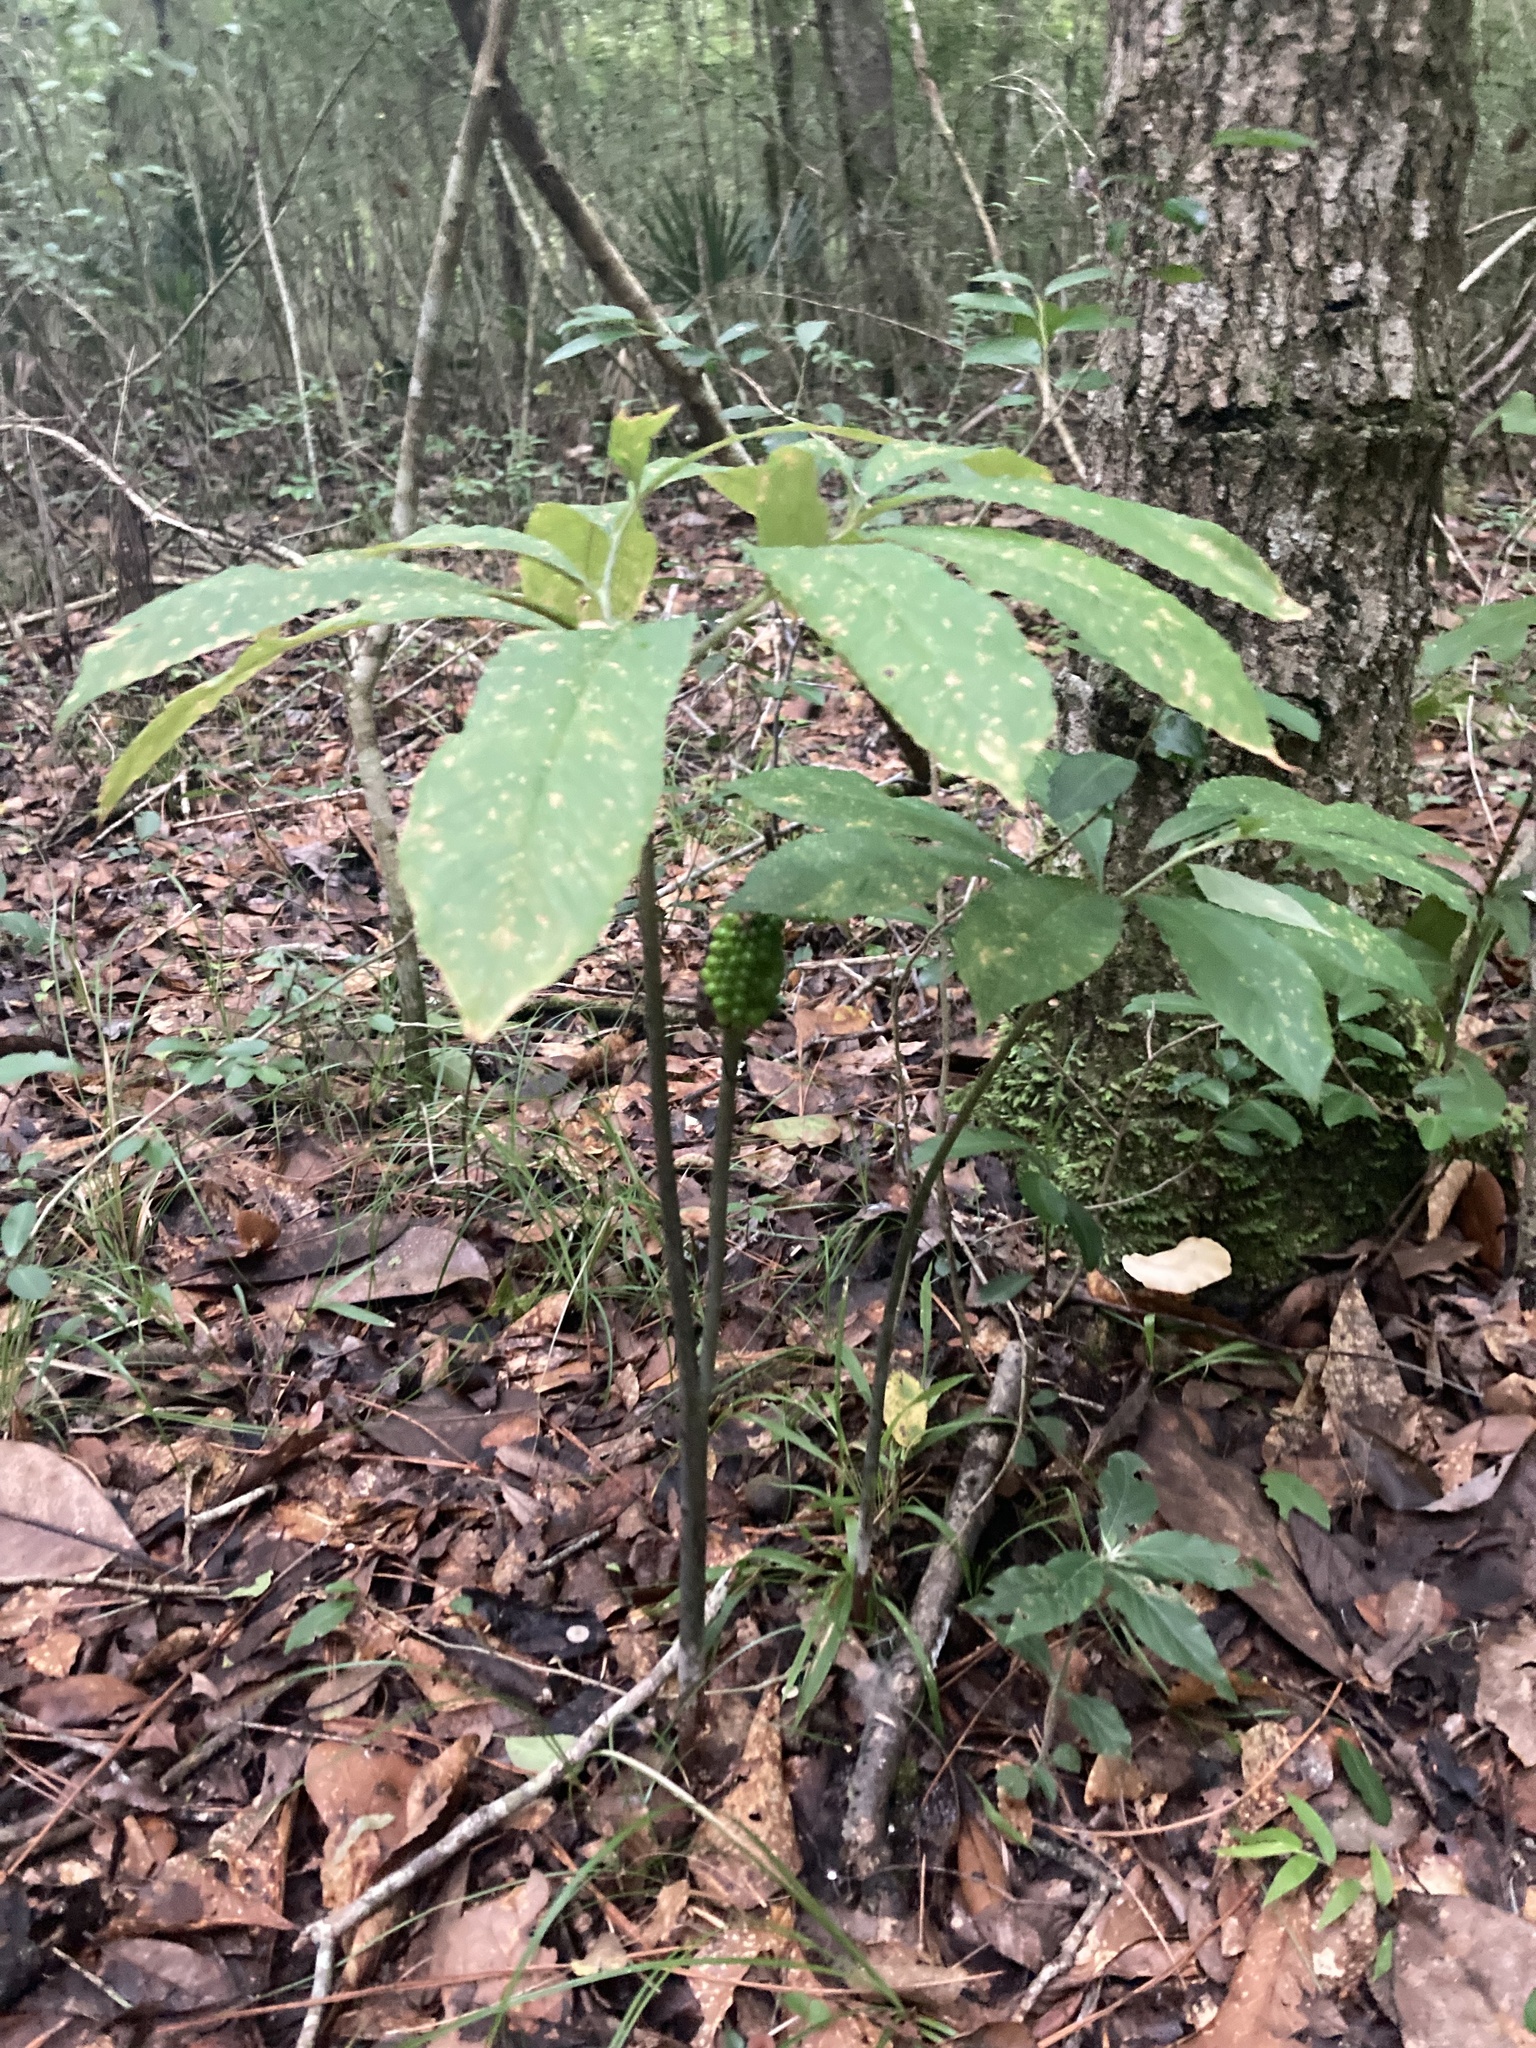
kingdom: Plantae
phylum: Tracheophyta
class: Liliopsida
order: Alismatales
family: Araceae
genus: Arisaema
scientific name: Arisaema dracontium
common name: Dragon-arum
